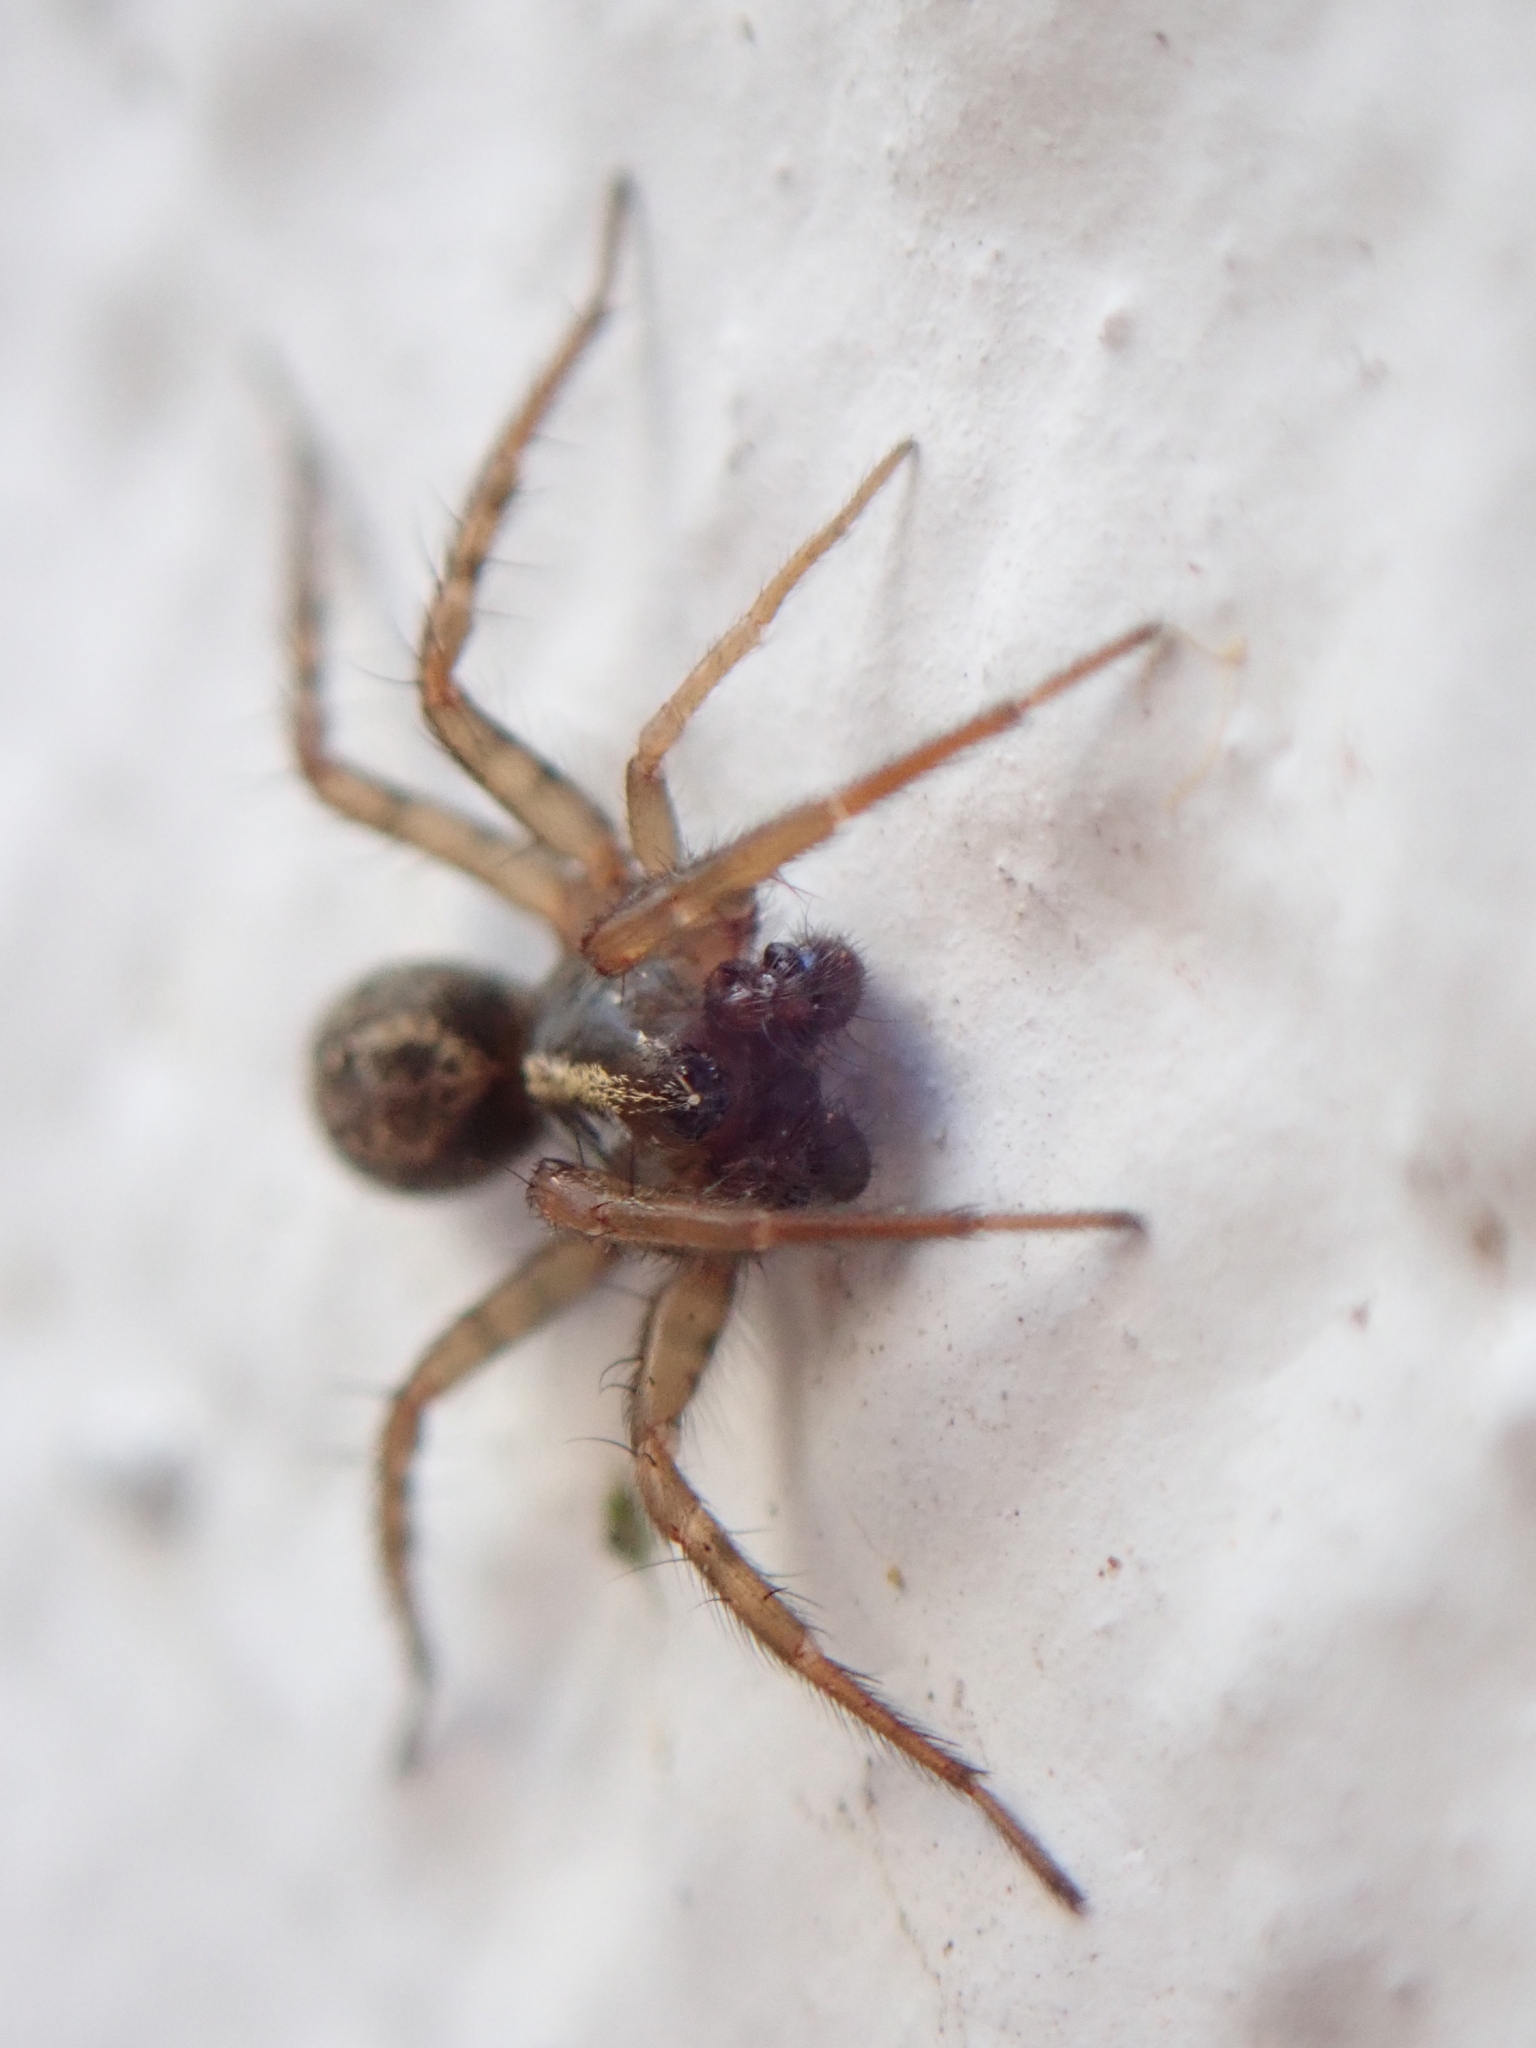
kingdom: Animalia
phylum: Arthropoda
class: Arachnida
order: Araneae
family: Agelenidae
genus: Maimuna
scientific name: Maimuna vestita
